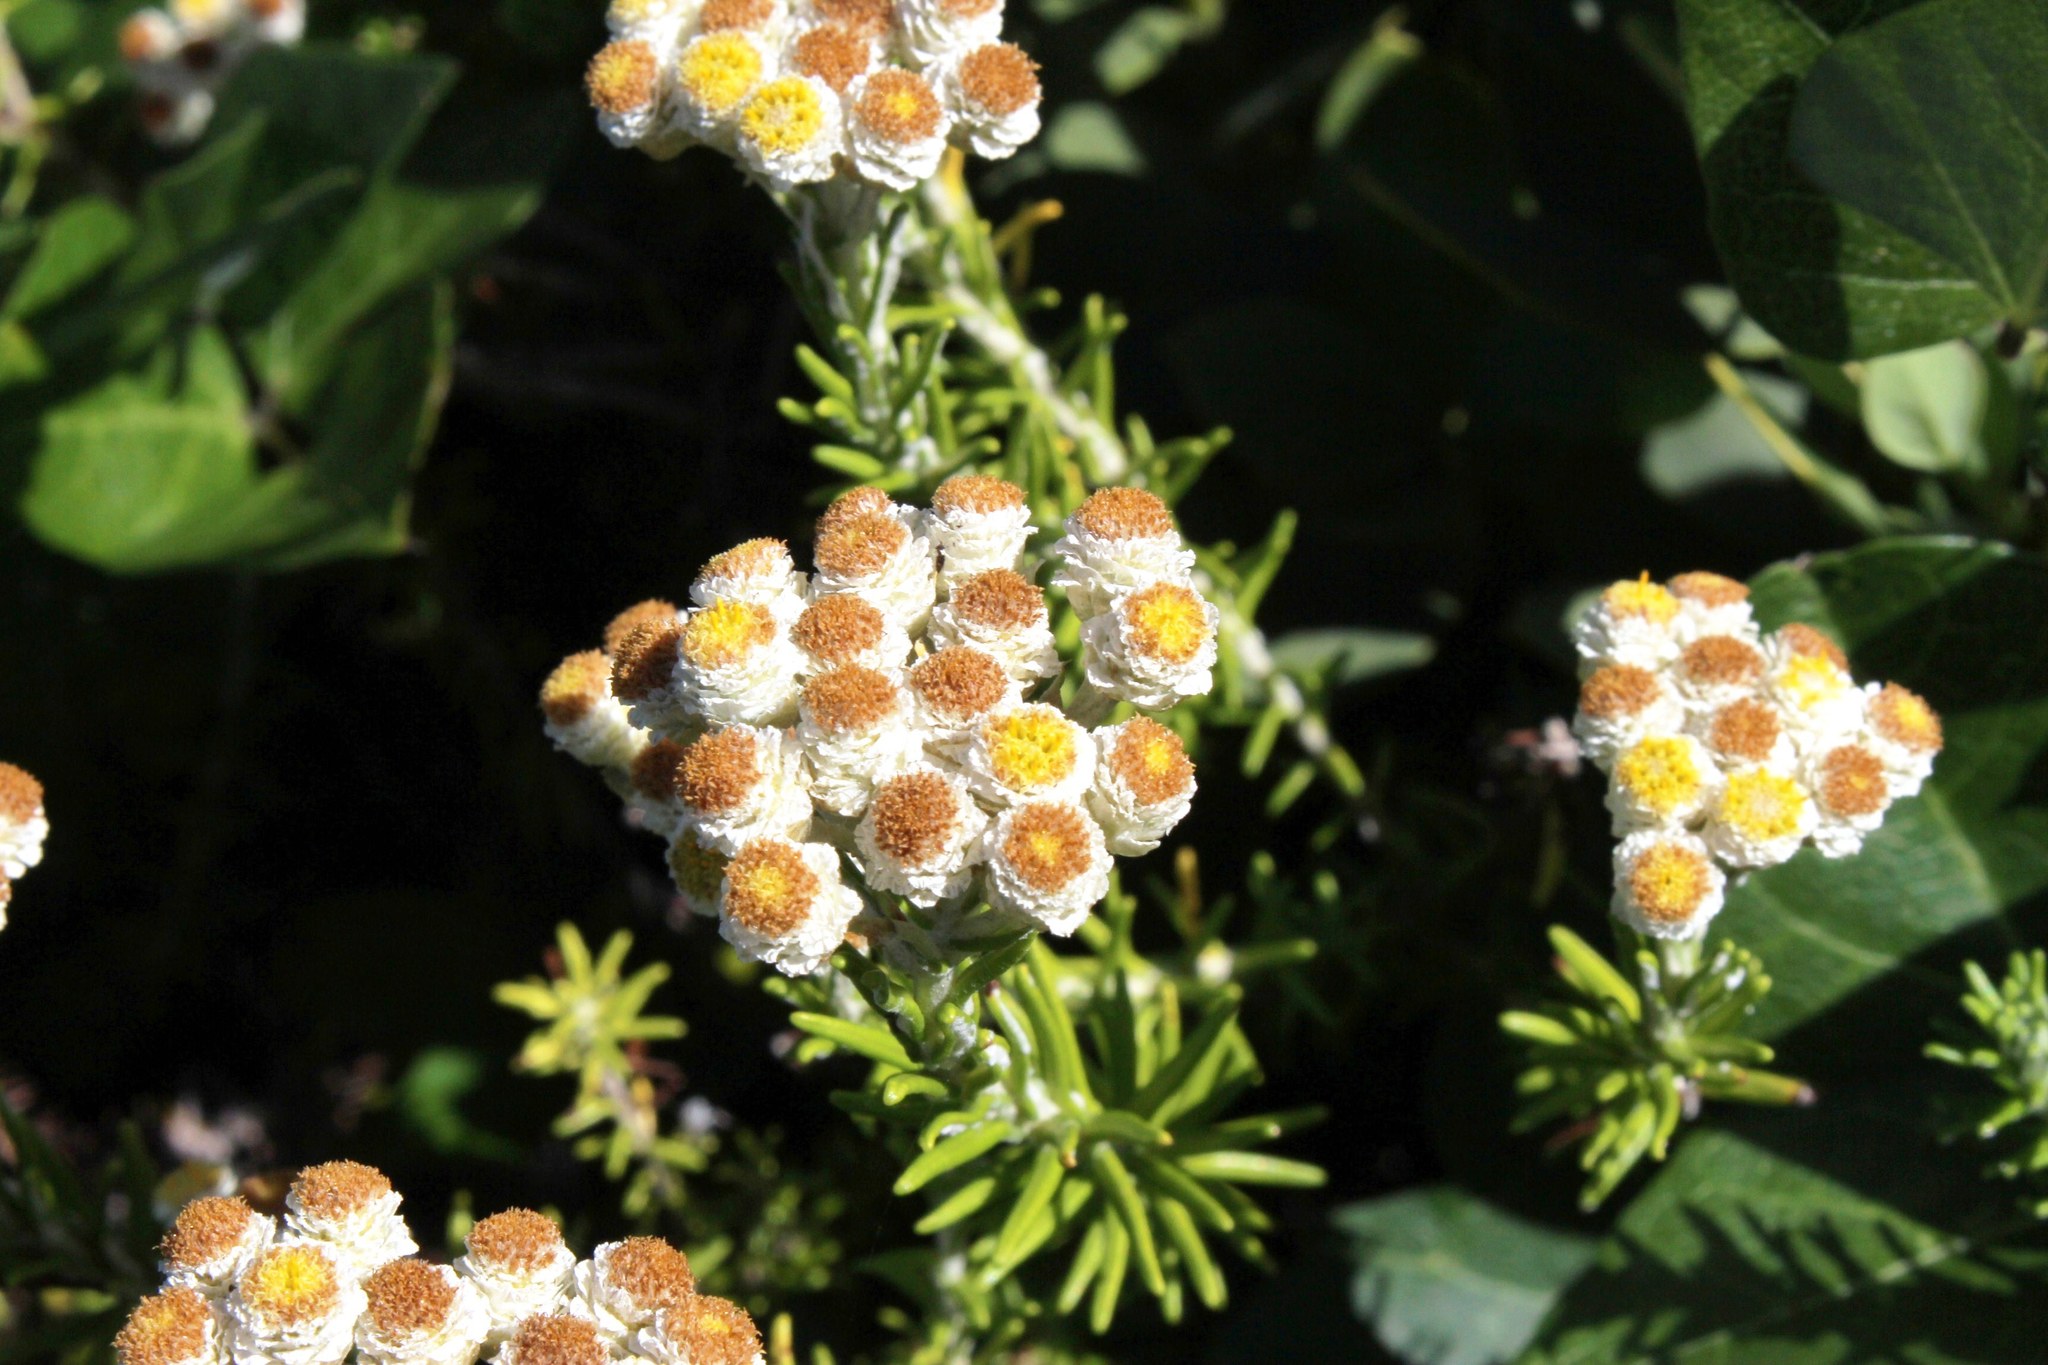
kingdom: Plantae
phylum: Tracheophyta
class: Magnoliopsida
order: Asterales
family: Asteraceae
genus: Helichrysum
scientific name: Helichrysum teretifolium
